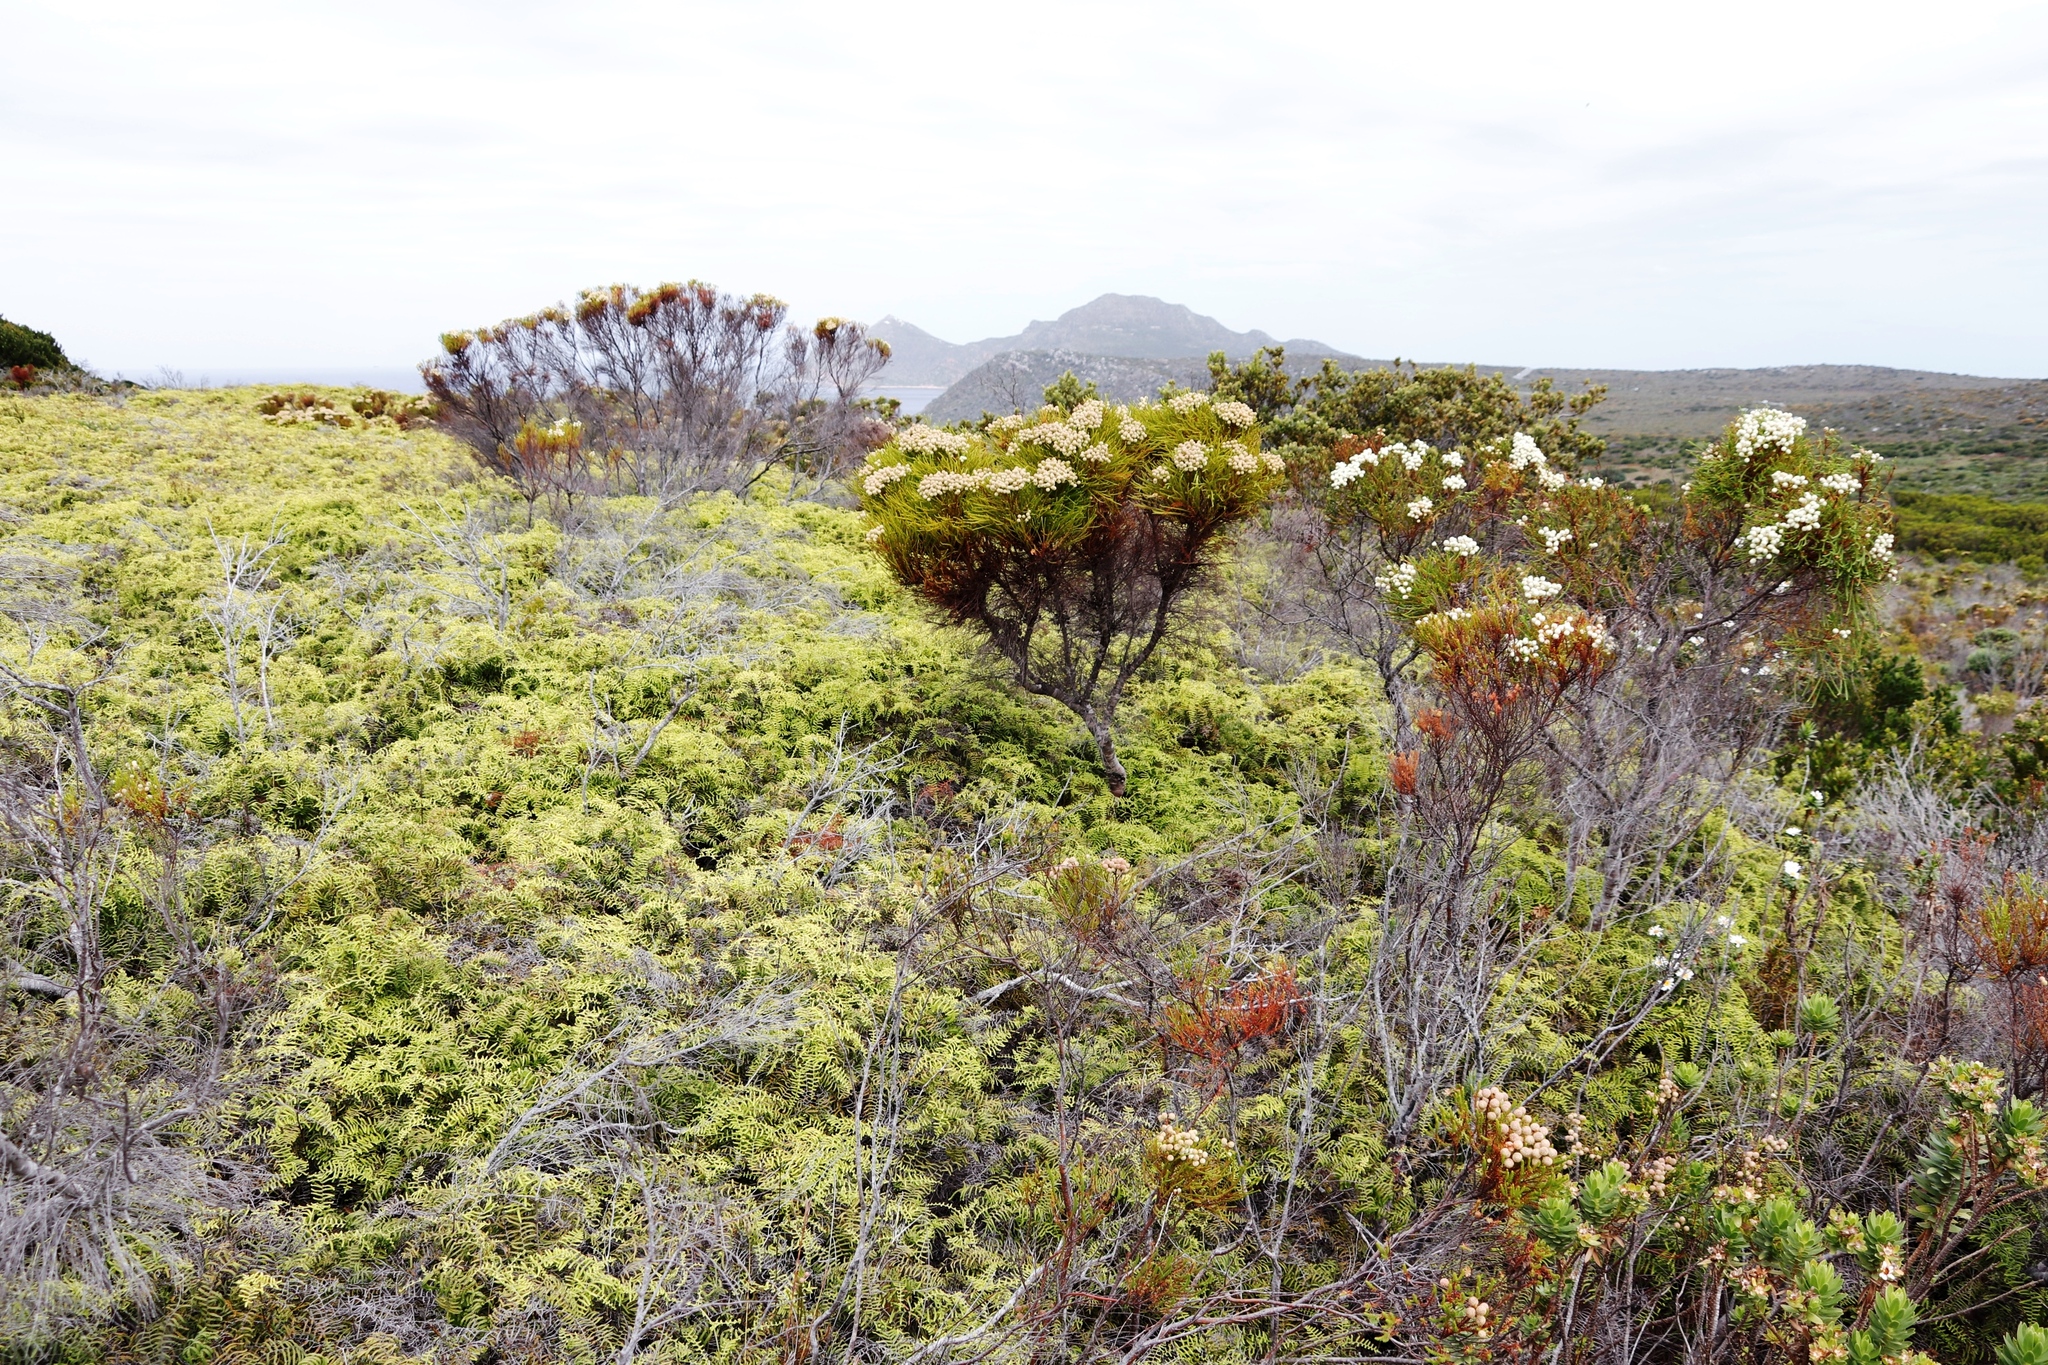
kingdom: Plantae
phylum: Tracheophyta
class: Polypodiopsida
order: Gleicheniales
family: Gleicheniaceae
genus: Gleichenia
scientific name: Gleichenia polypodioides
